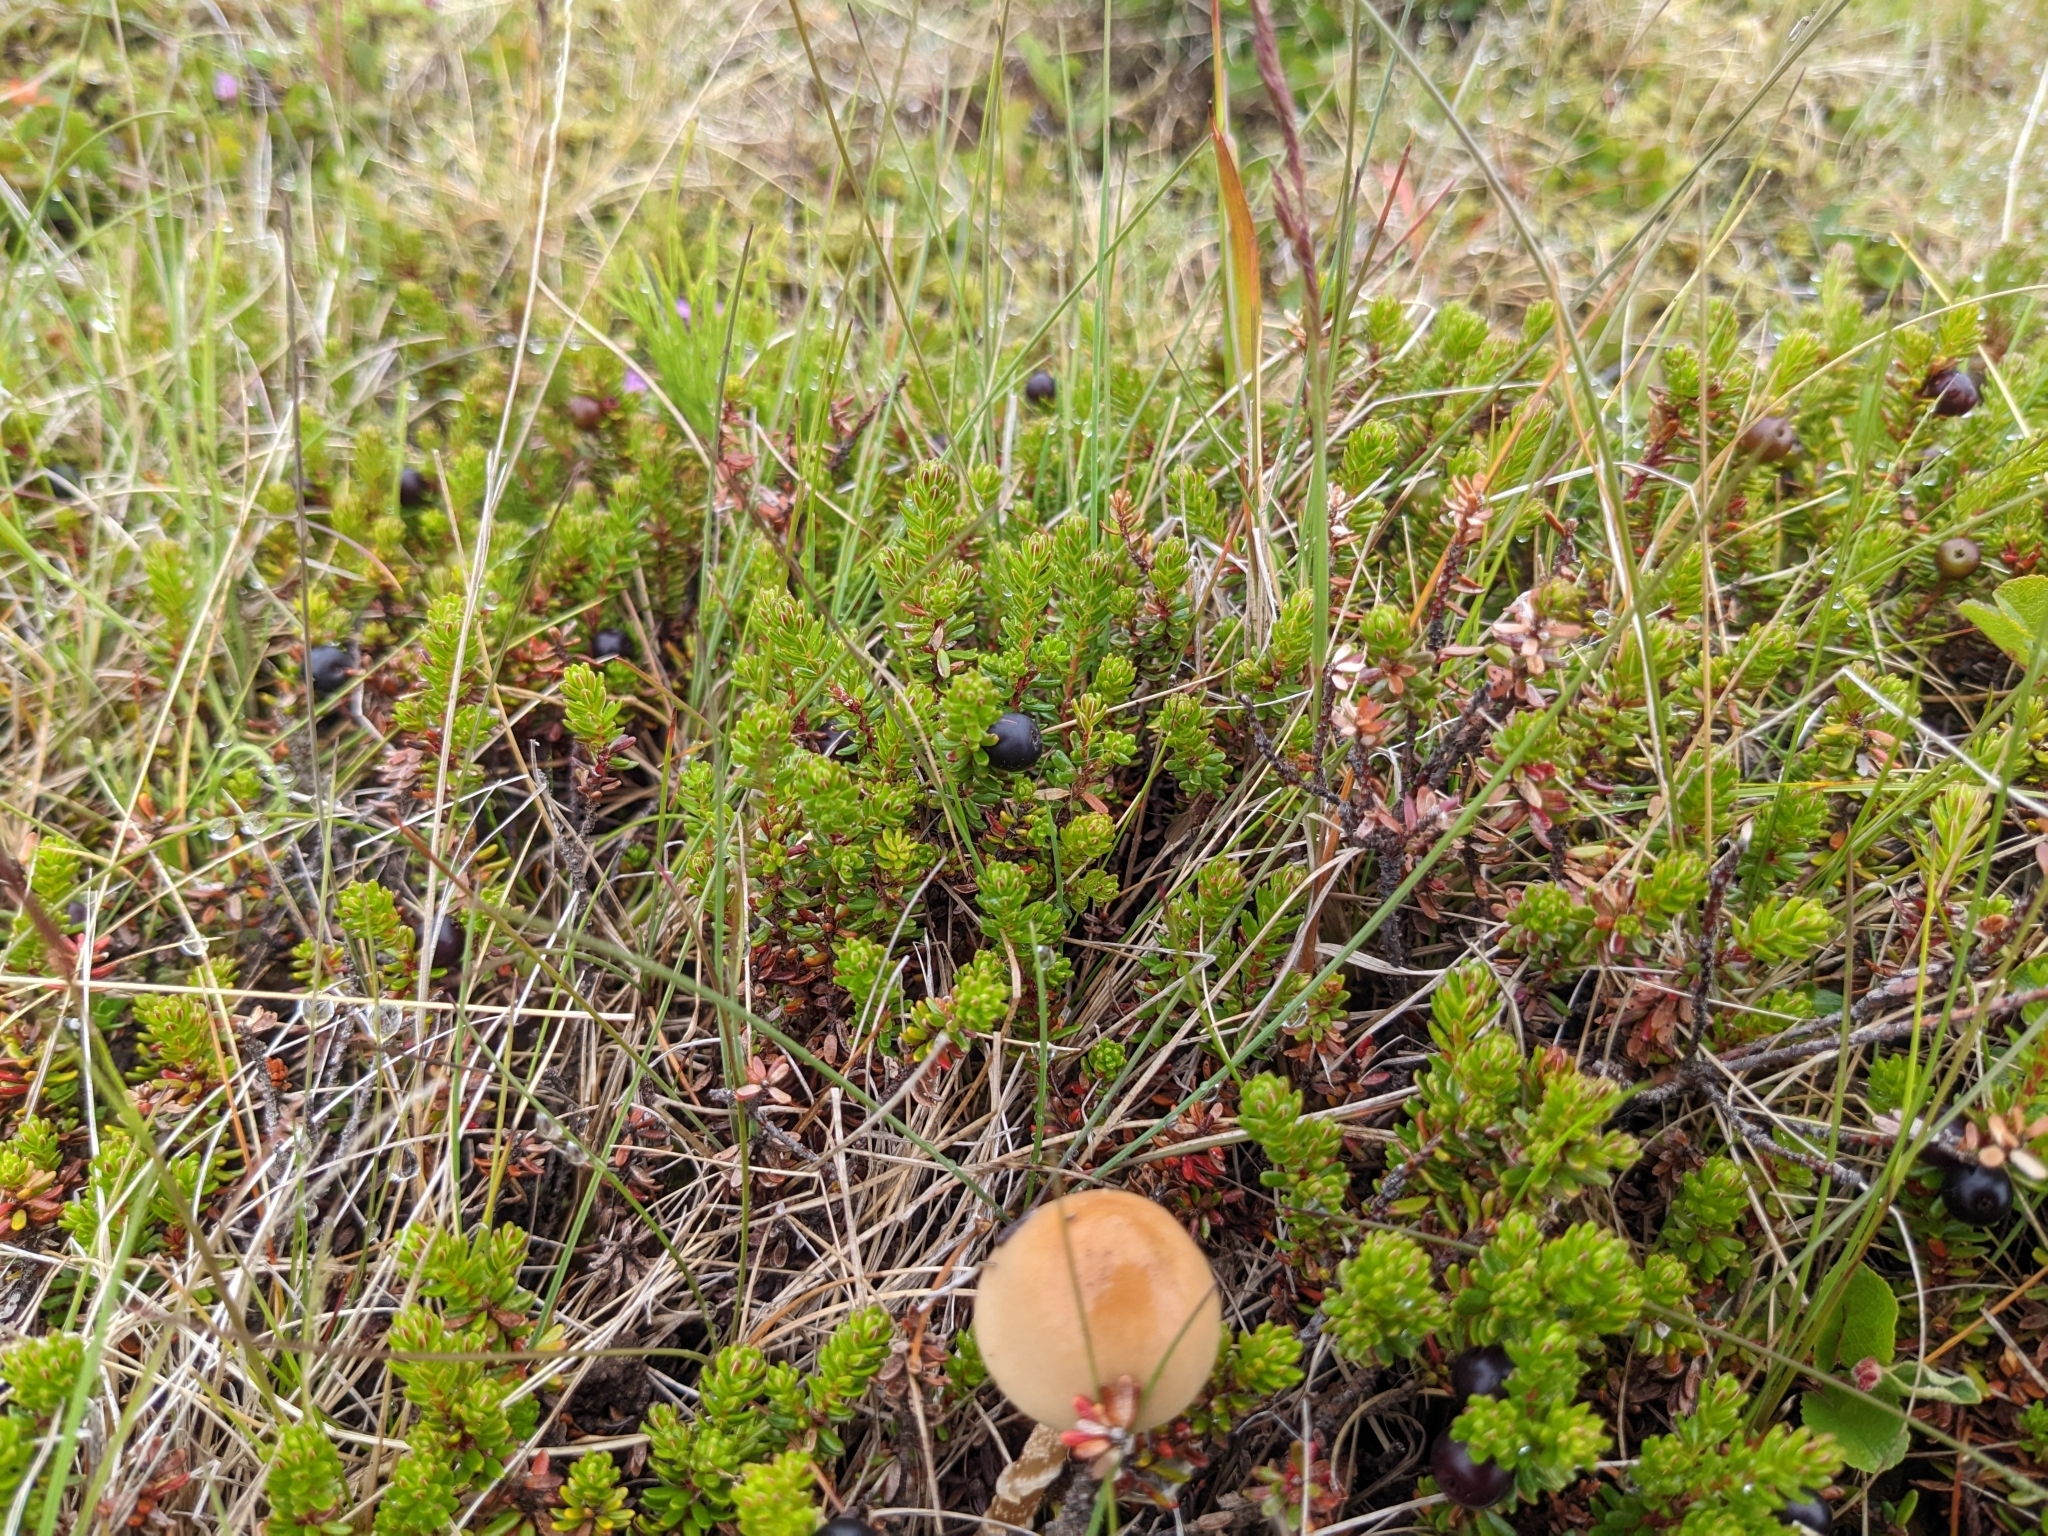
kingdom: Plantae
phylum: Tracheophyta
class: Magnoliopsida
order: Ericales
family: Ericaceae
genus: Empetrum
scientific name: Empetrum nigrum
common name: Black crowberry
